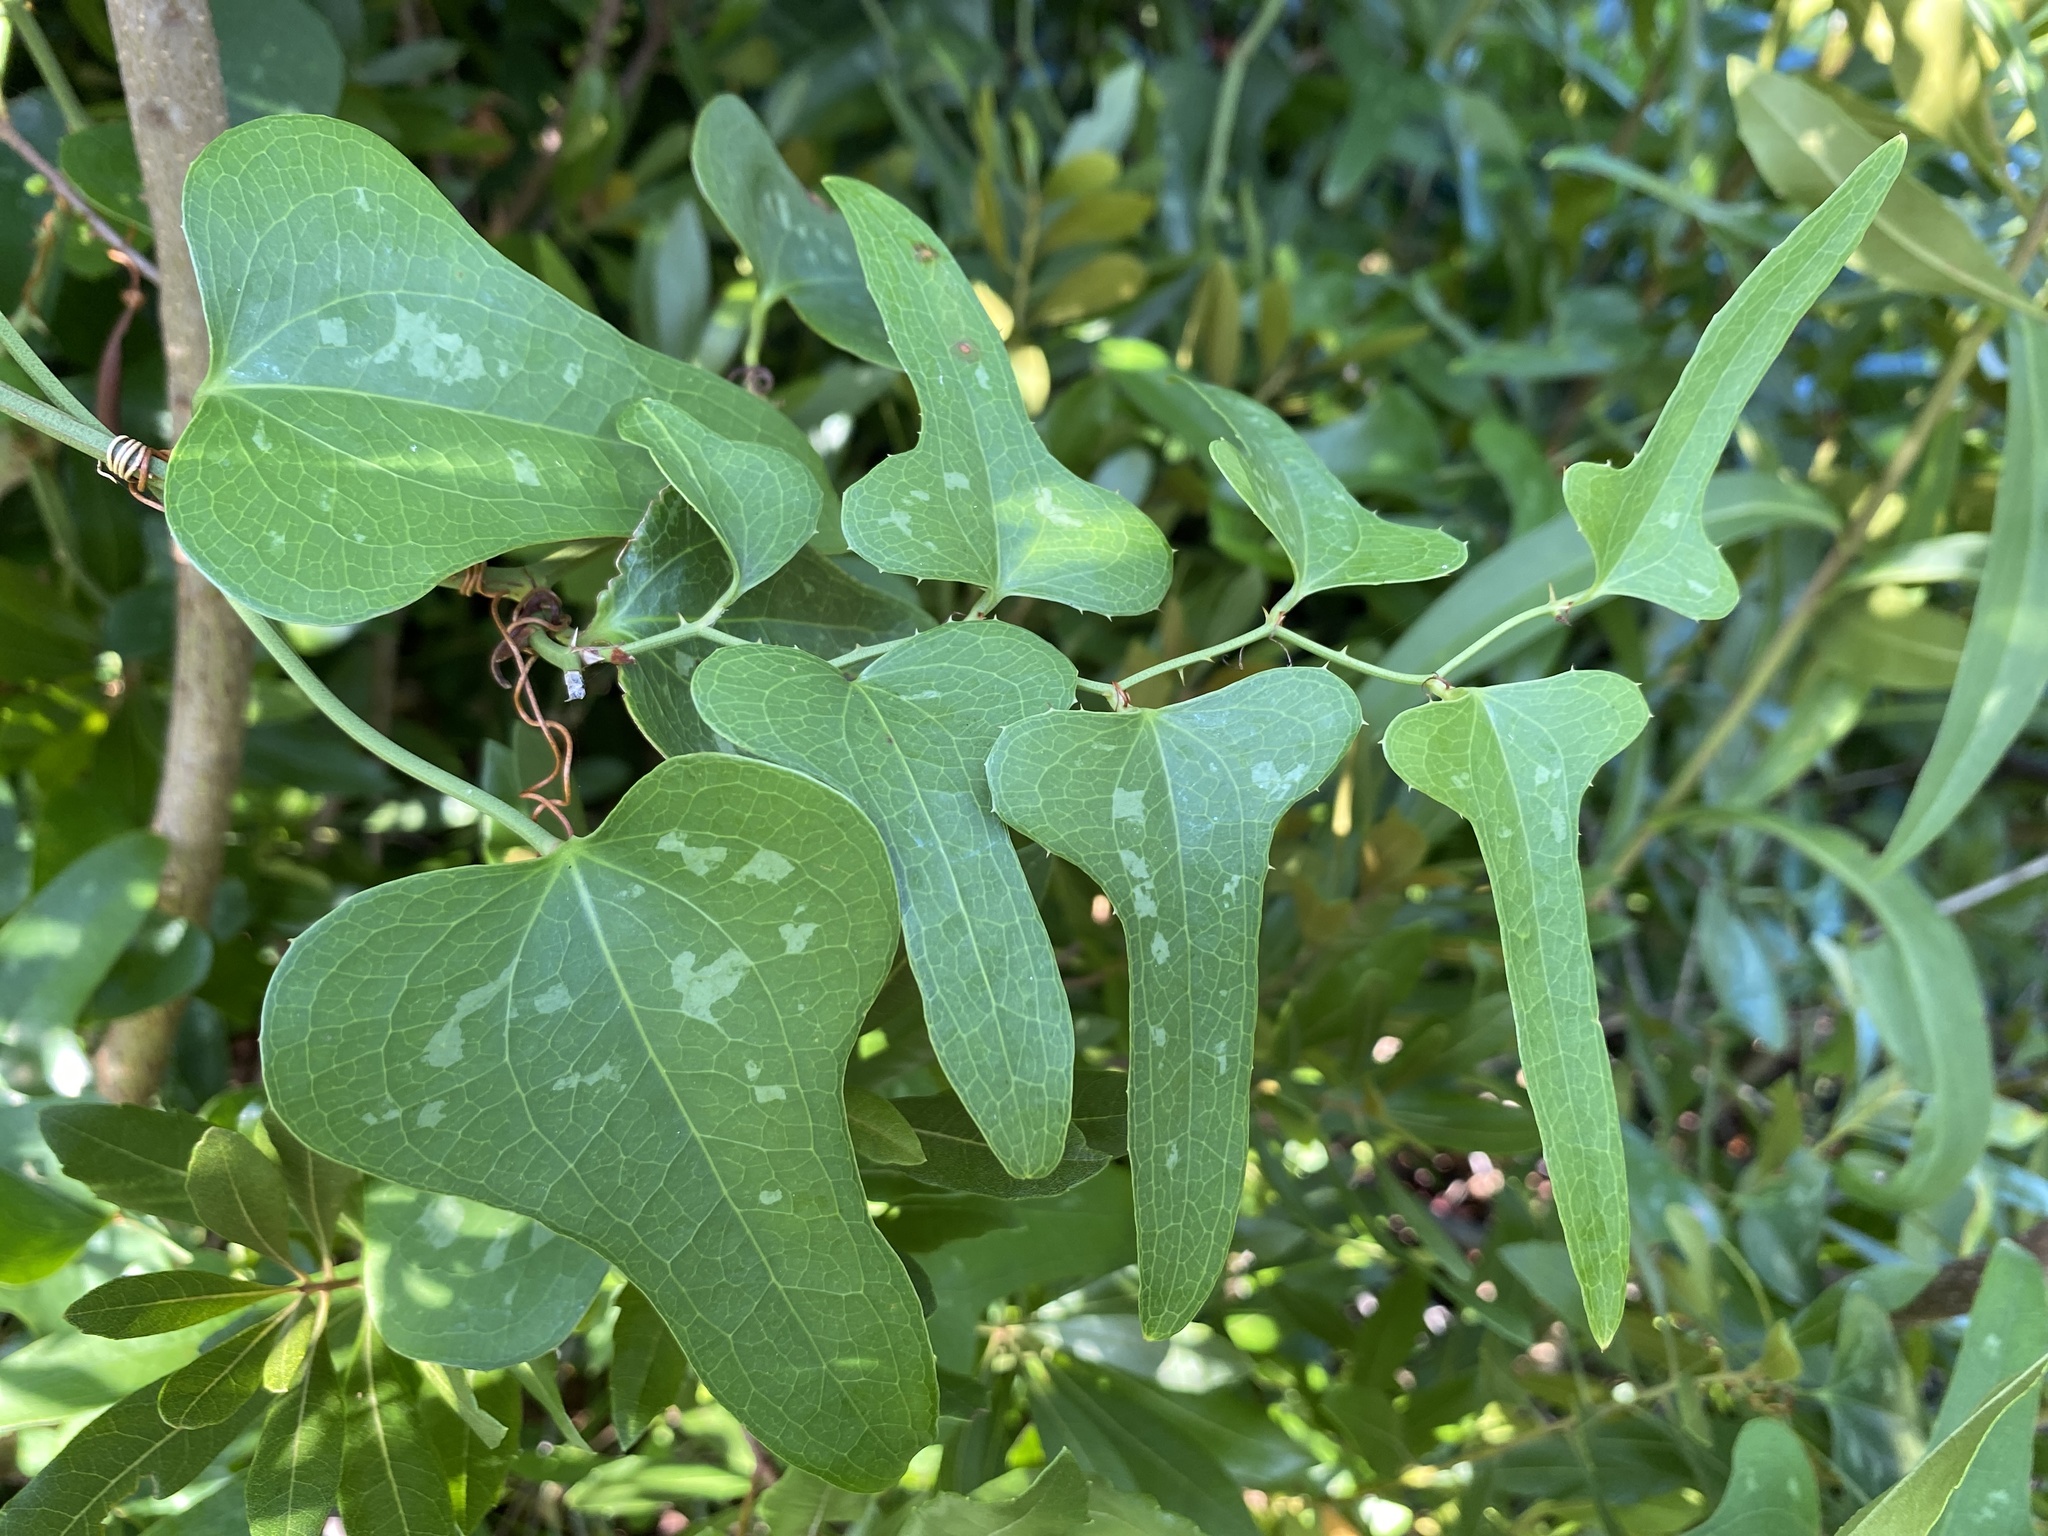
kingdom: Plantae
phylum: Tracheophyta
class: Liliopsida
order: Liliales
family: Smilacaceae
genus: Smilax
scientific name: Smilax bona-nox
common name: Catbrier
